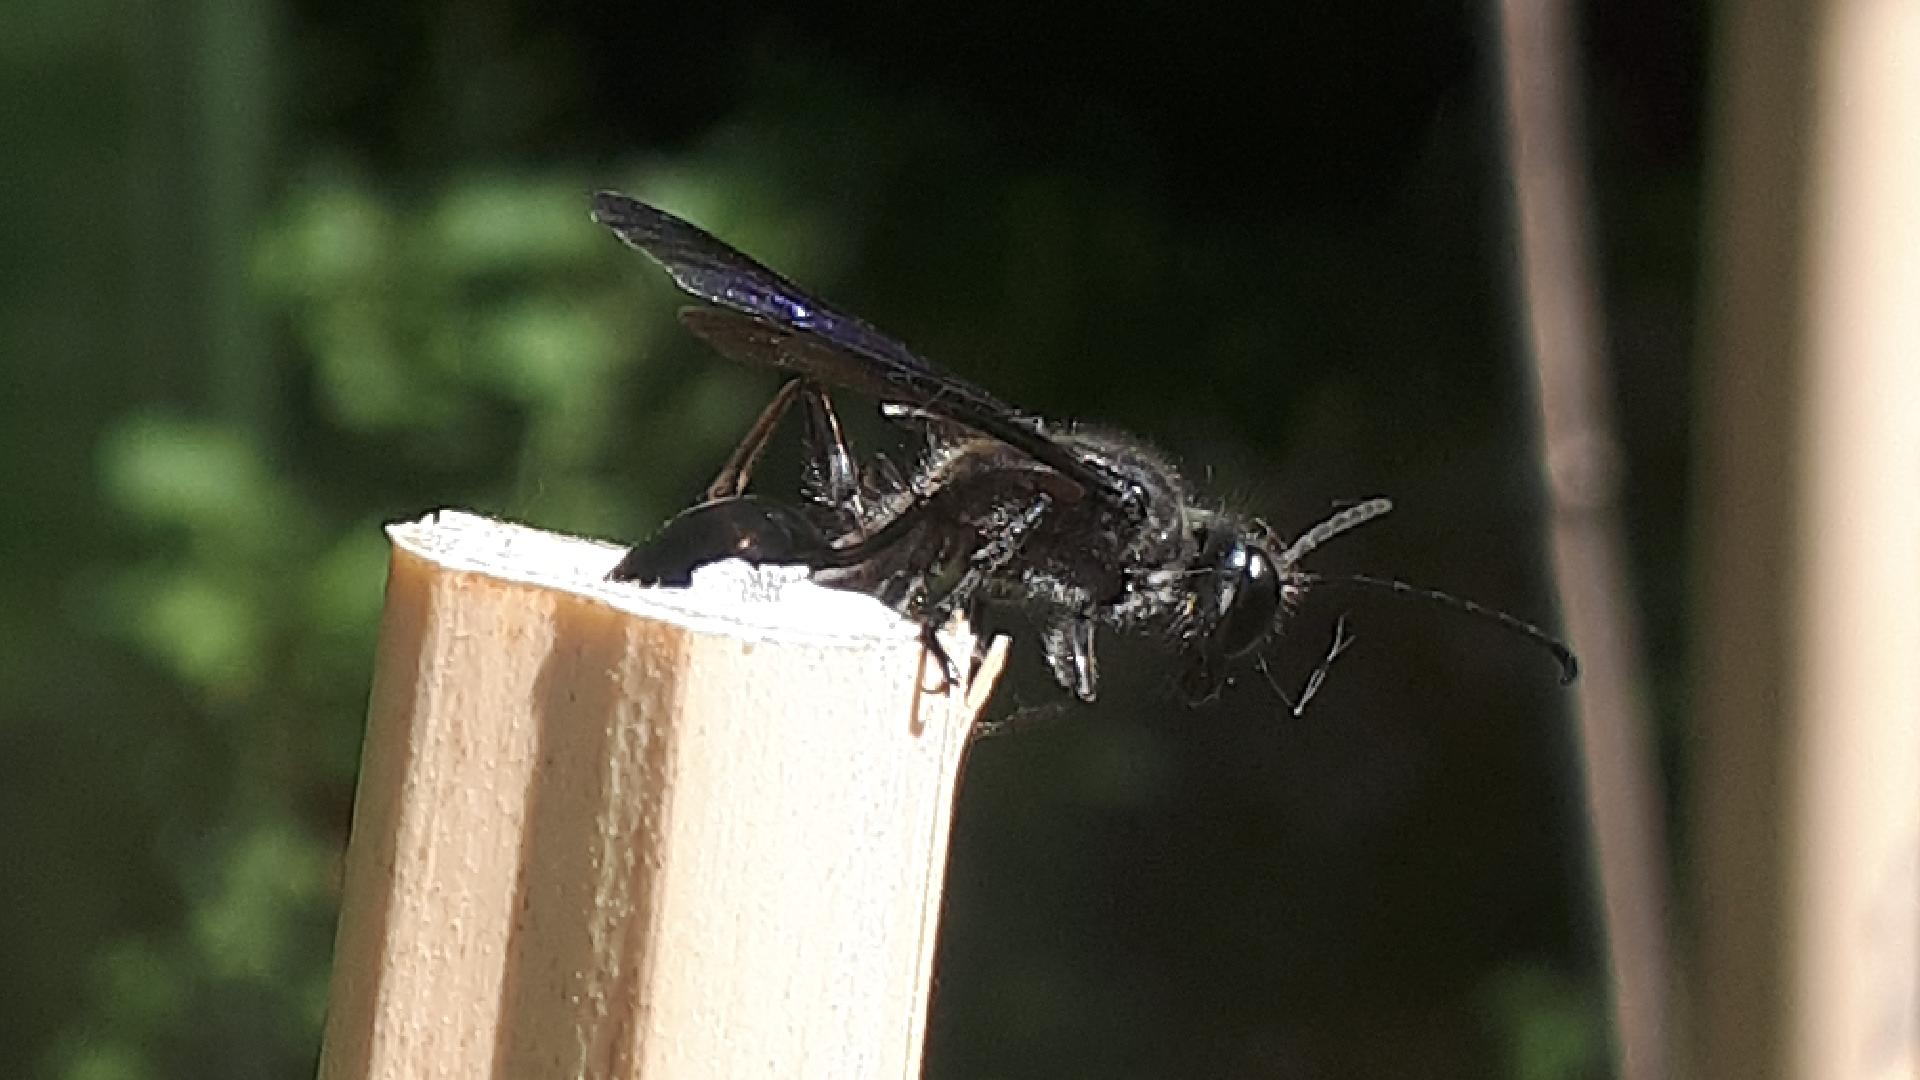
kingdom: Animalia
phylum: Arthropoda
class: Insecta
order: Hymenoptera
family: Sphecidae
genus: Isodontia
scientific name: Isodontia mexicana
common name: Mud dauber
